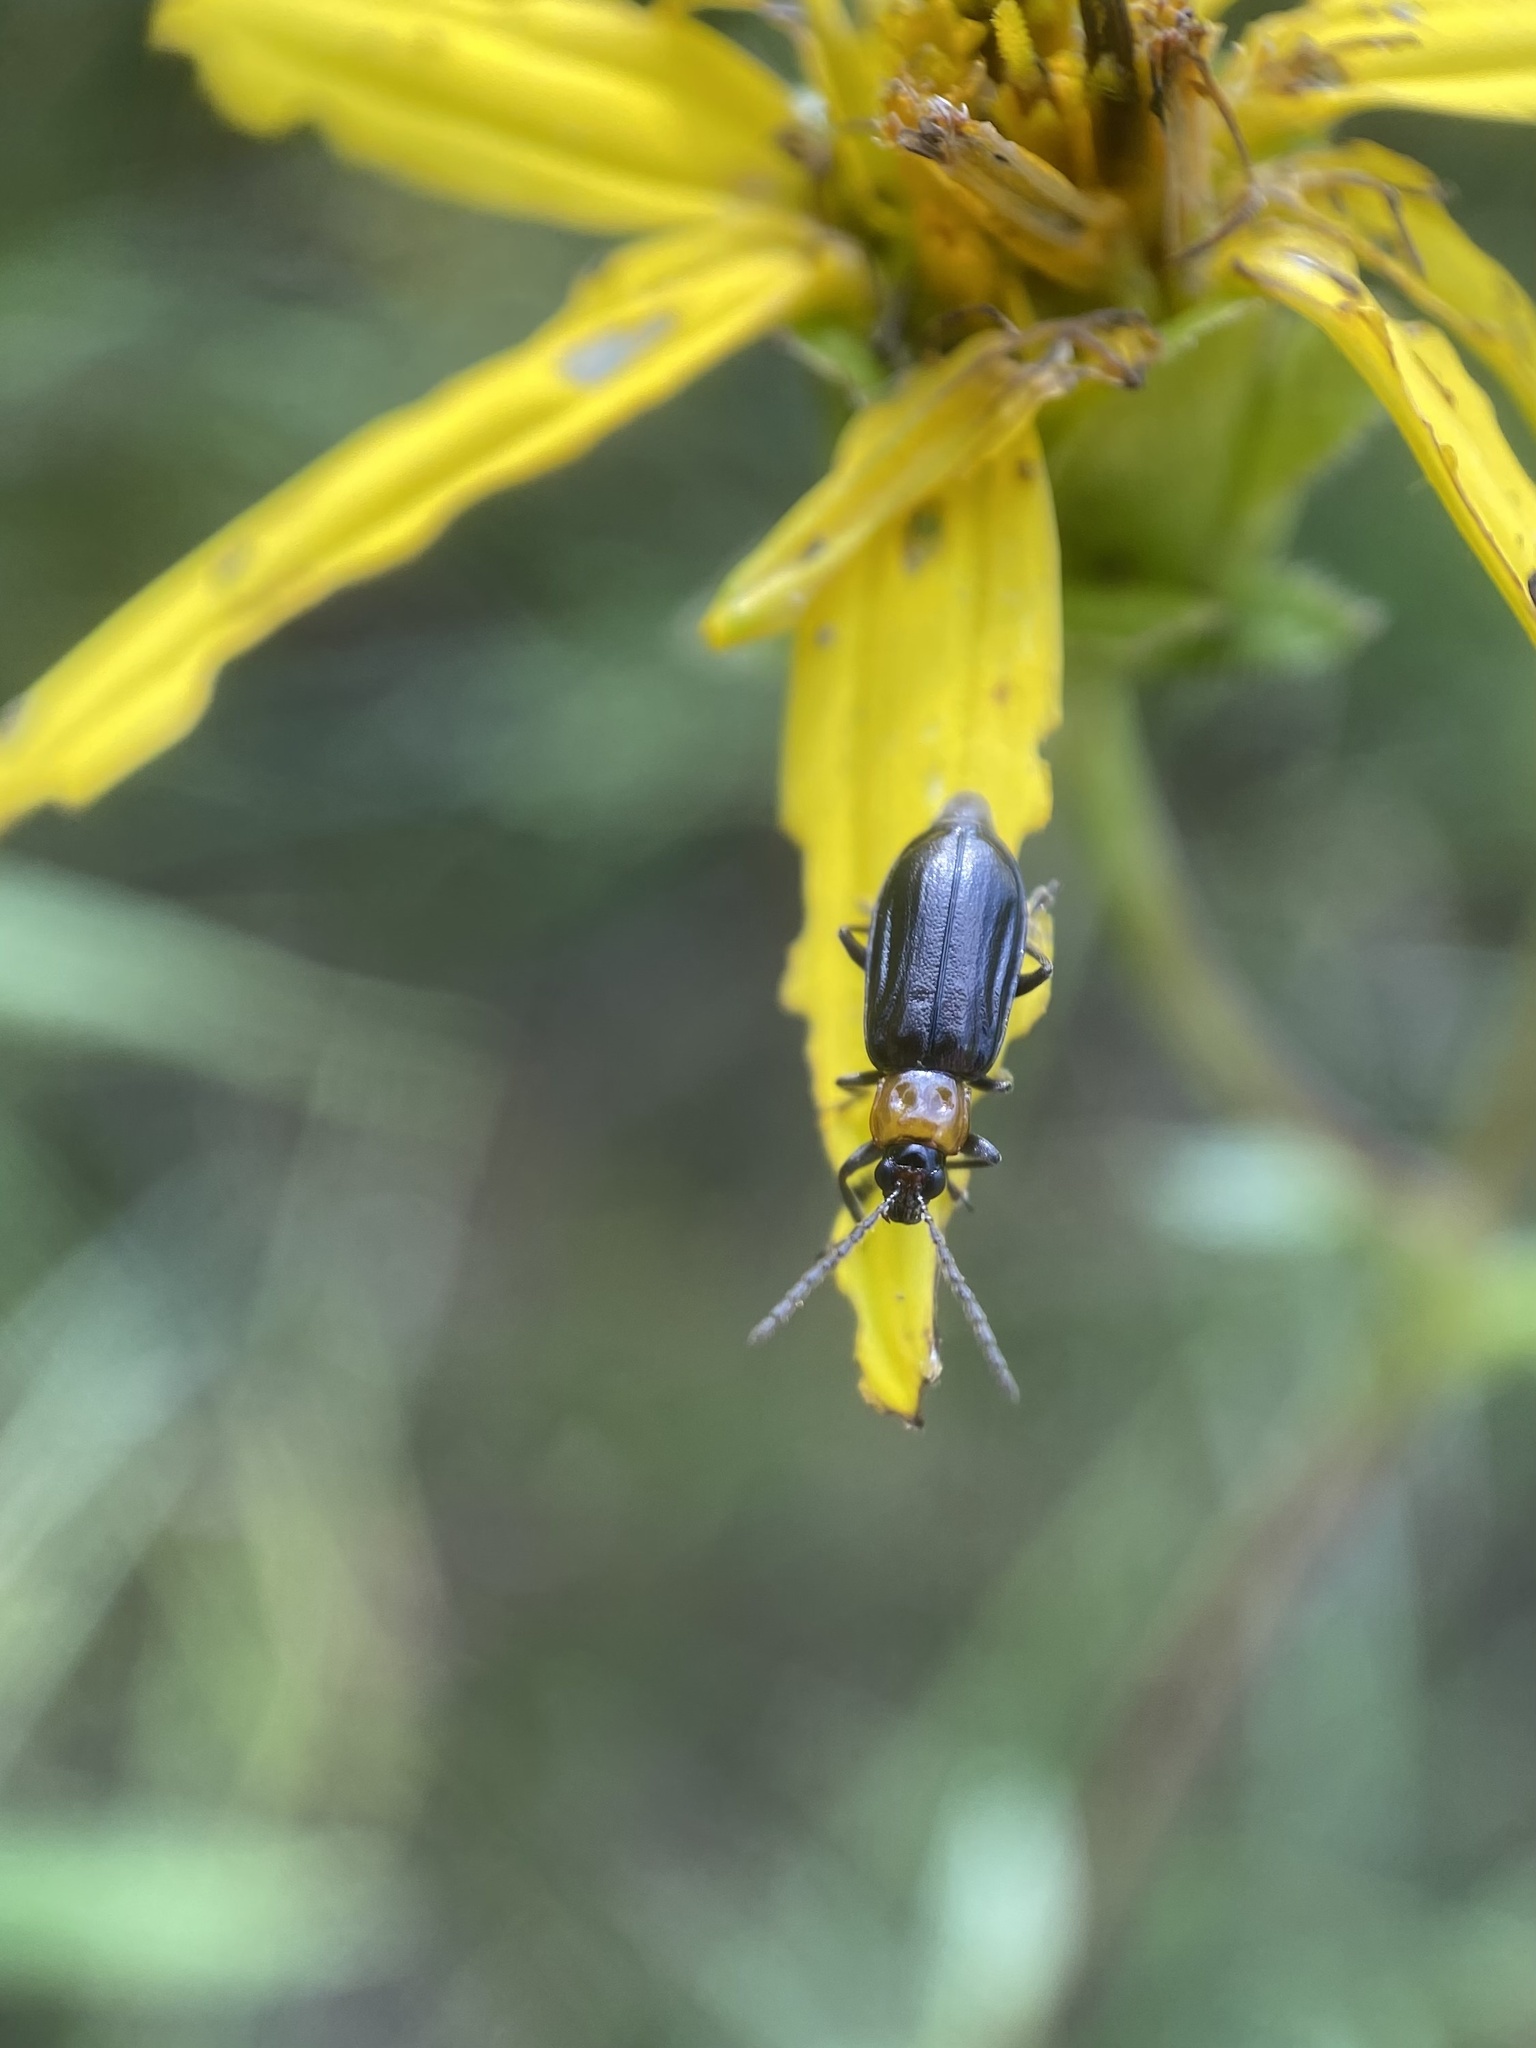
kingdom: Animalia
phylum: Arthropoda
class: Insecta
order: Coleoptera
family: Chrysomelidae
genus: Diabrotica
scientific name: Diabrotica cristata
